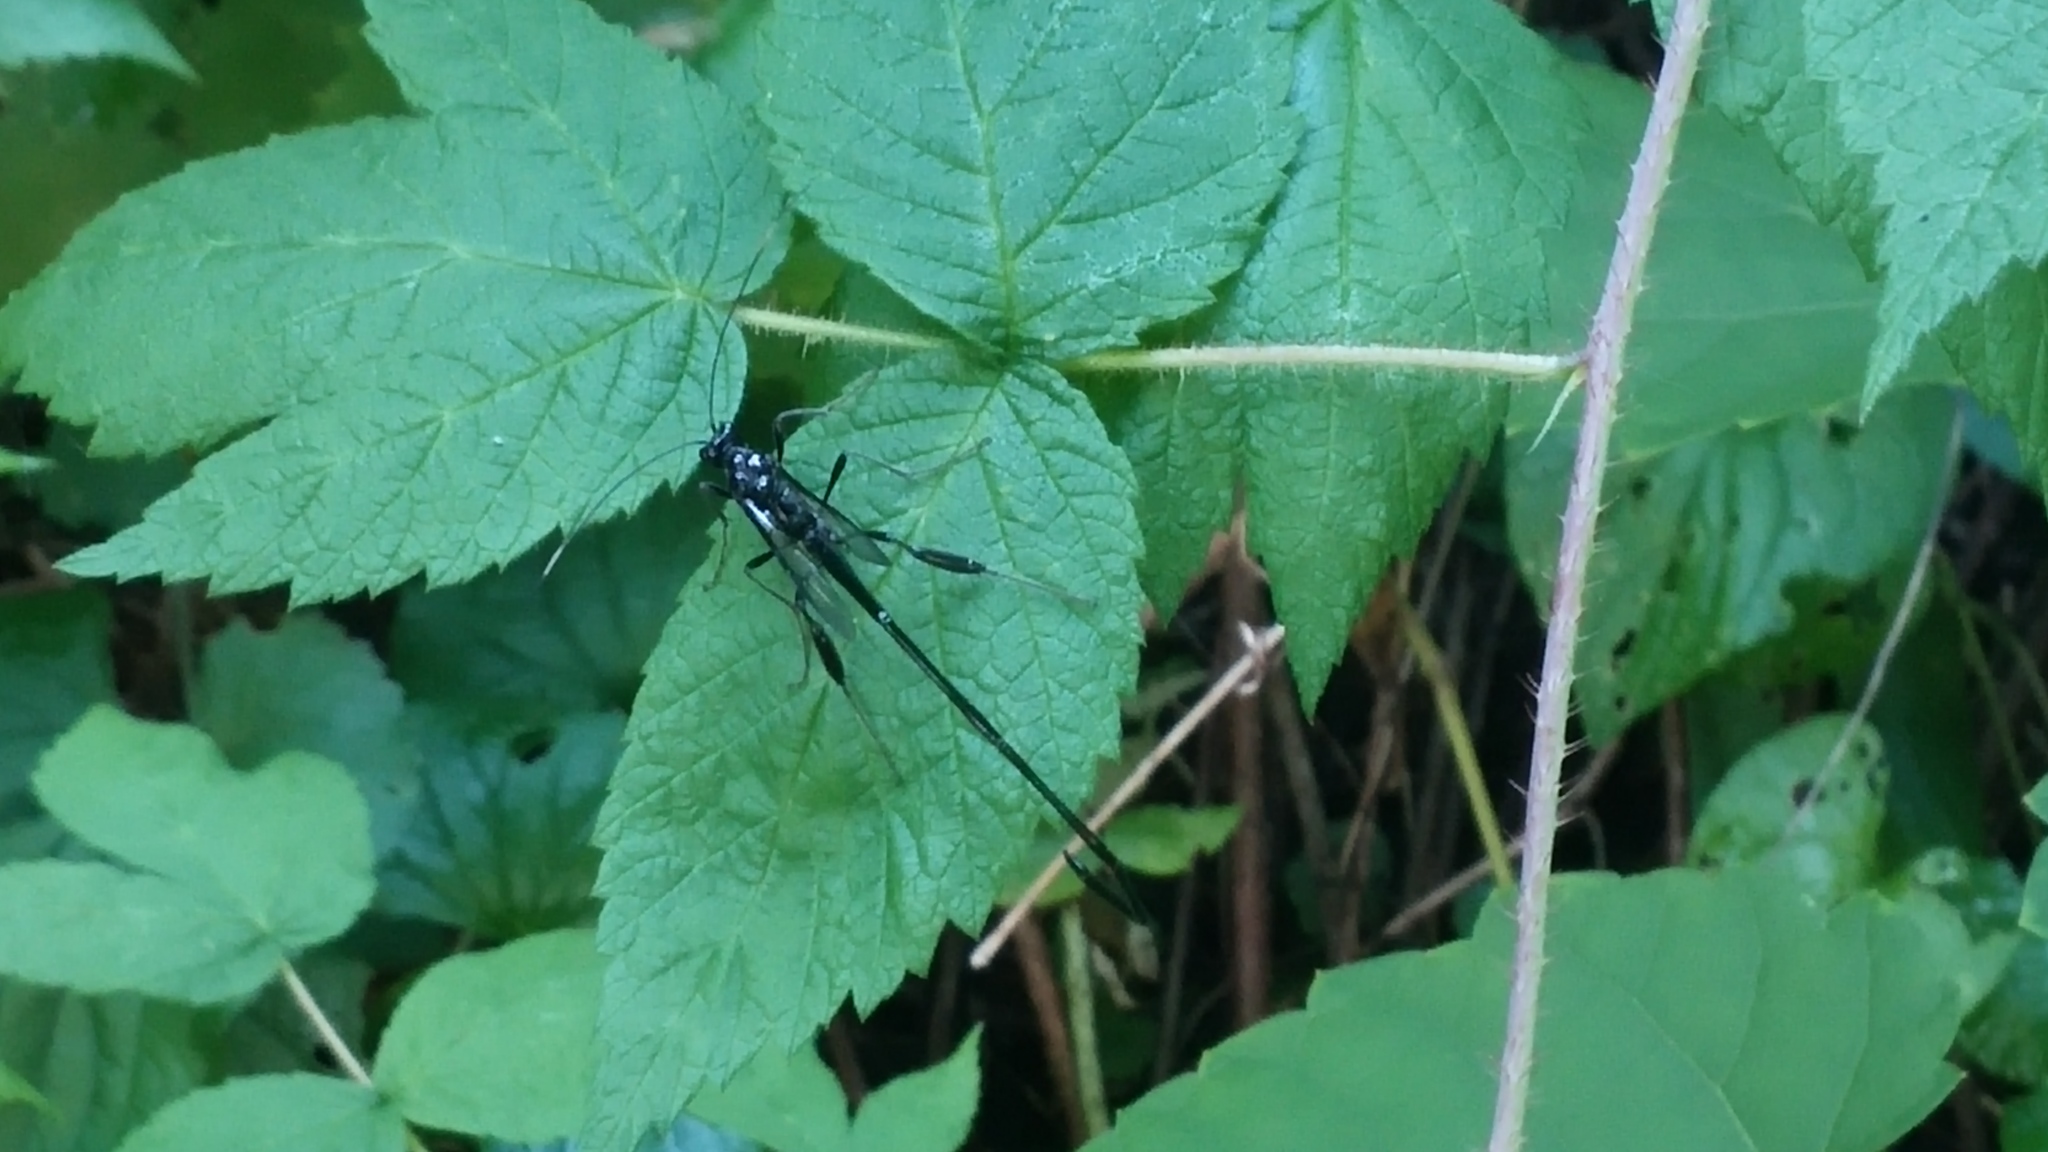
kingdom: Animalia
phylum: Arthropoda
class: Insecta
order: Hymenoptera
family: Pelecinidae
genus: Pelecinus
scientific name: Pelecinus polyturator
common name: American pelecinid wasp
